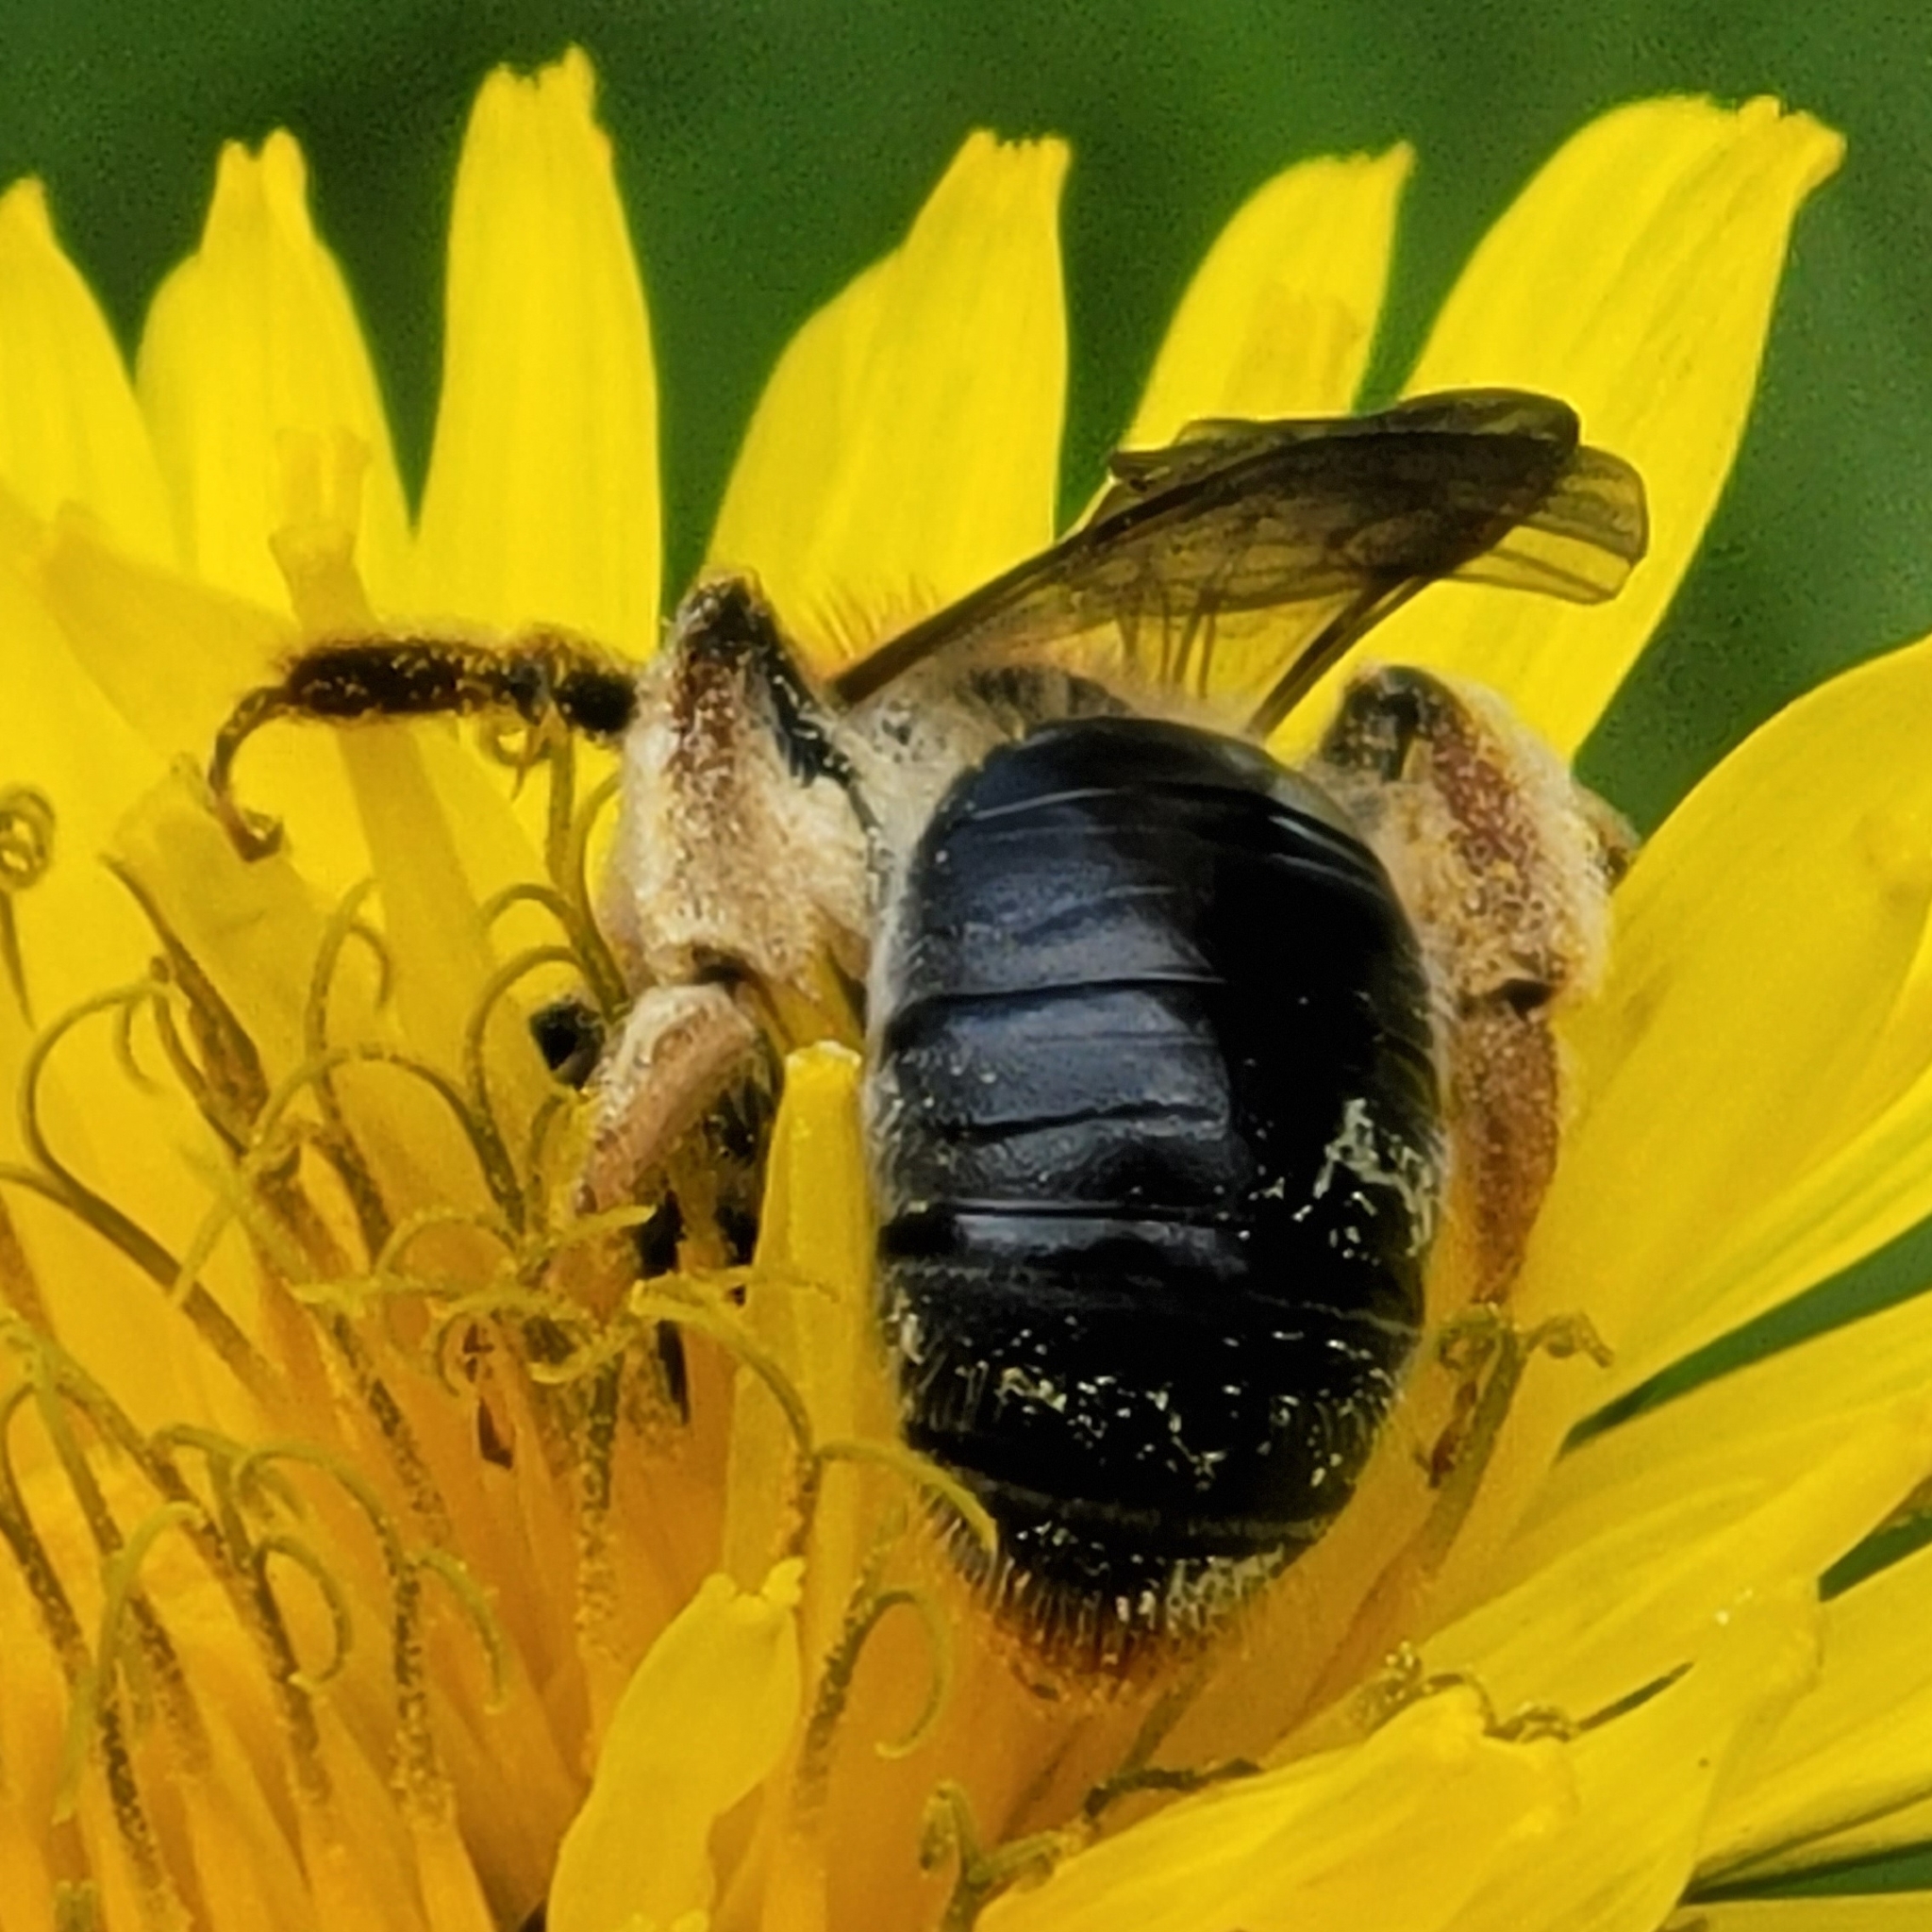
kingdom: Animalia
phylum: Arthropoda
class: Insecta
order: Hymenoptera
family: Andrenidae
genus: Andrena
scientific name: Andrena haemorrhoa
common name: Early mining bee
